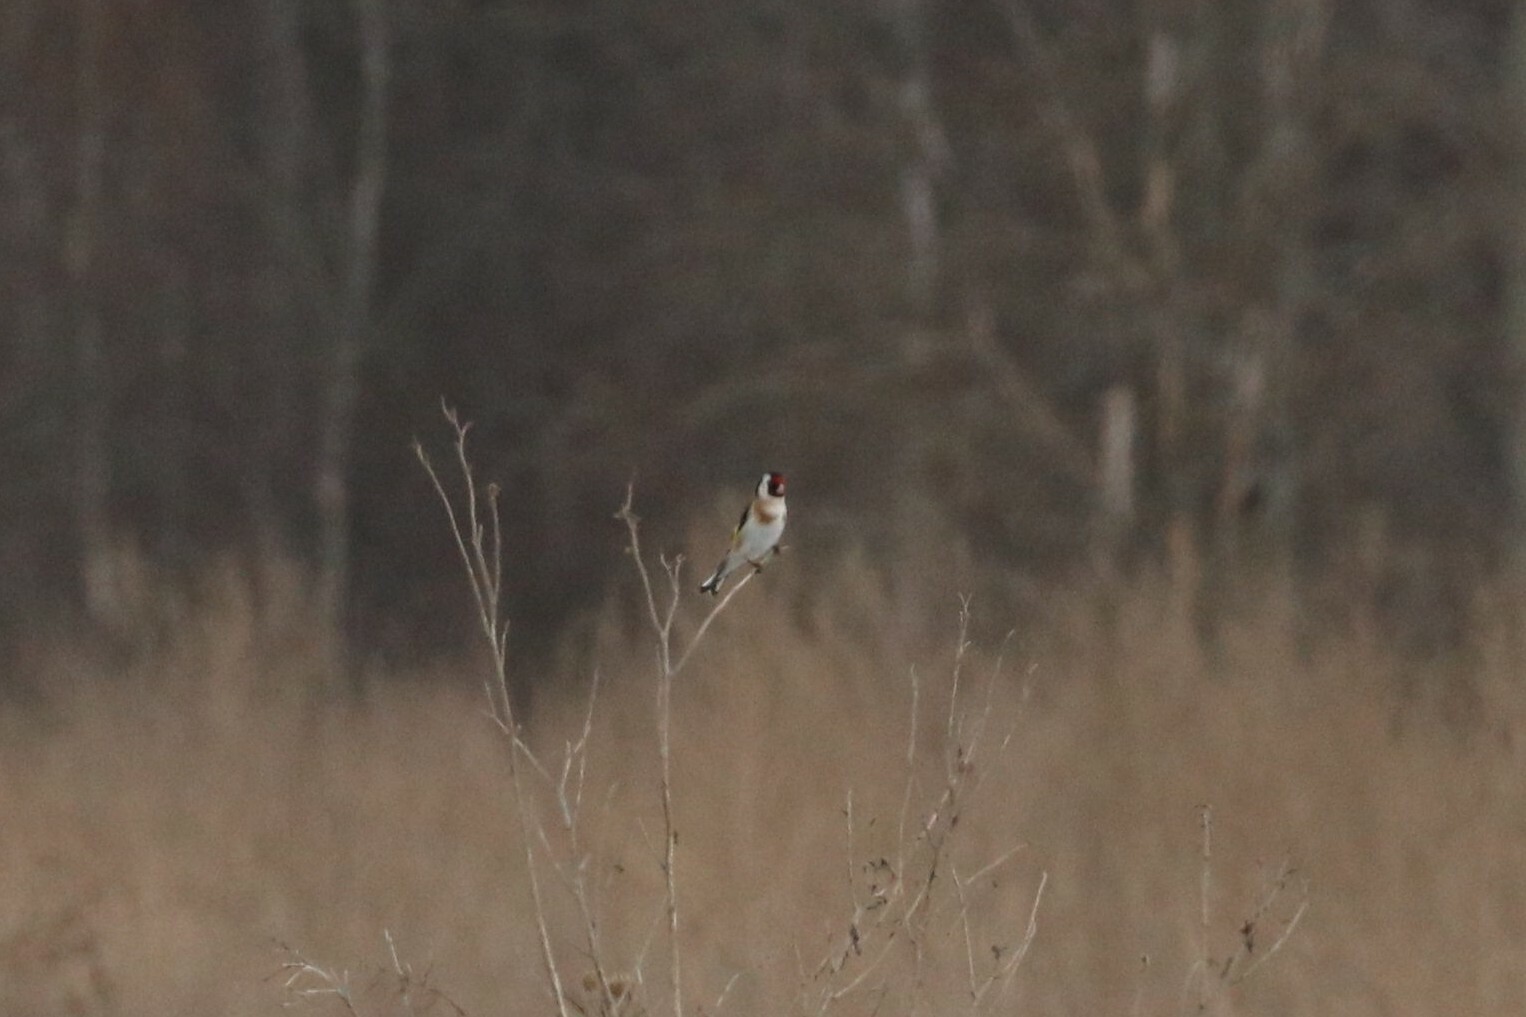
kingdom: Animalia
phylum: Chordata
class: Aves
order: Passeriformes
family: Fringillidae
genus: Carduelis
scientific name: Carduelis carduelis
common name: European goldfinch
